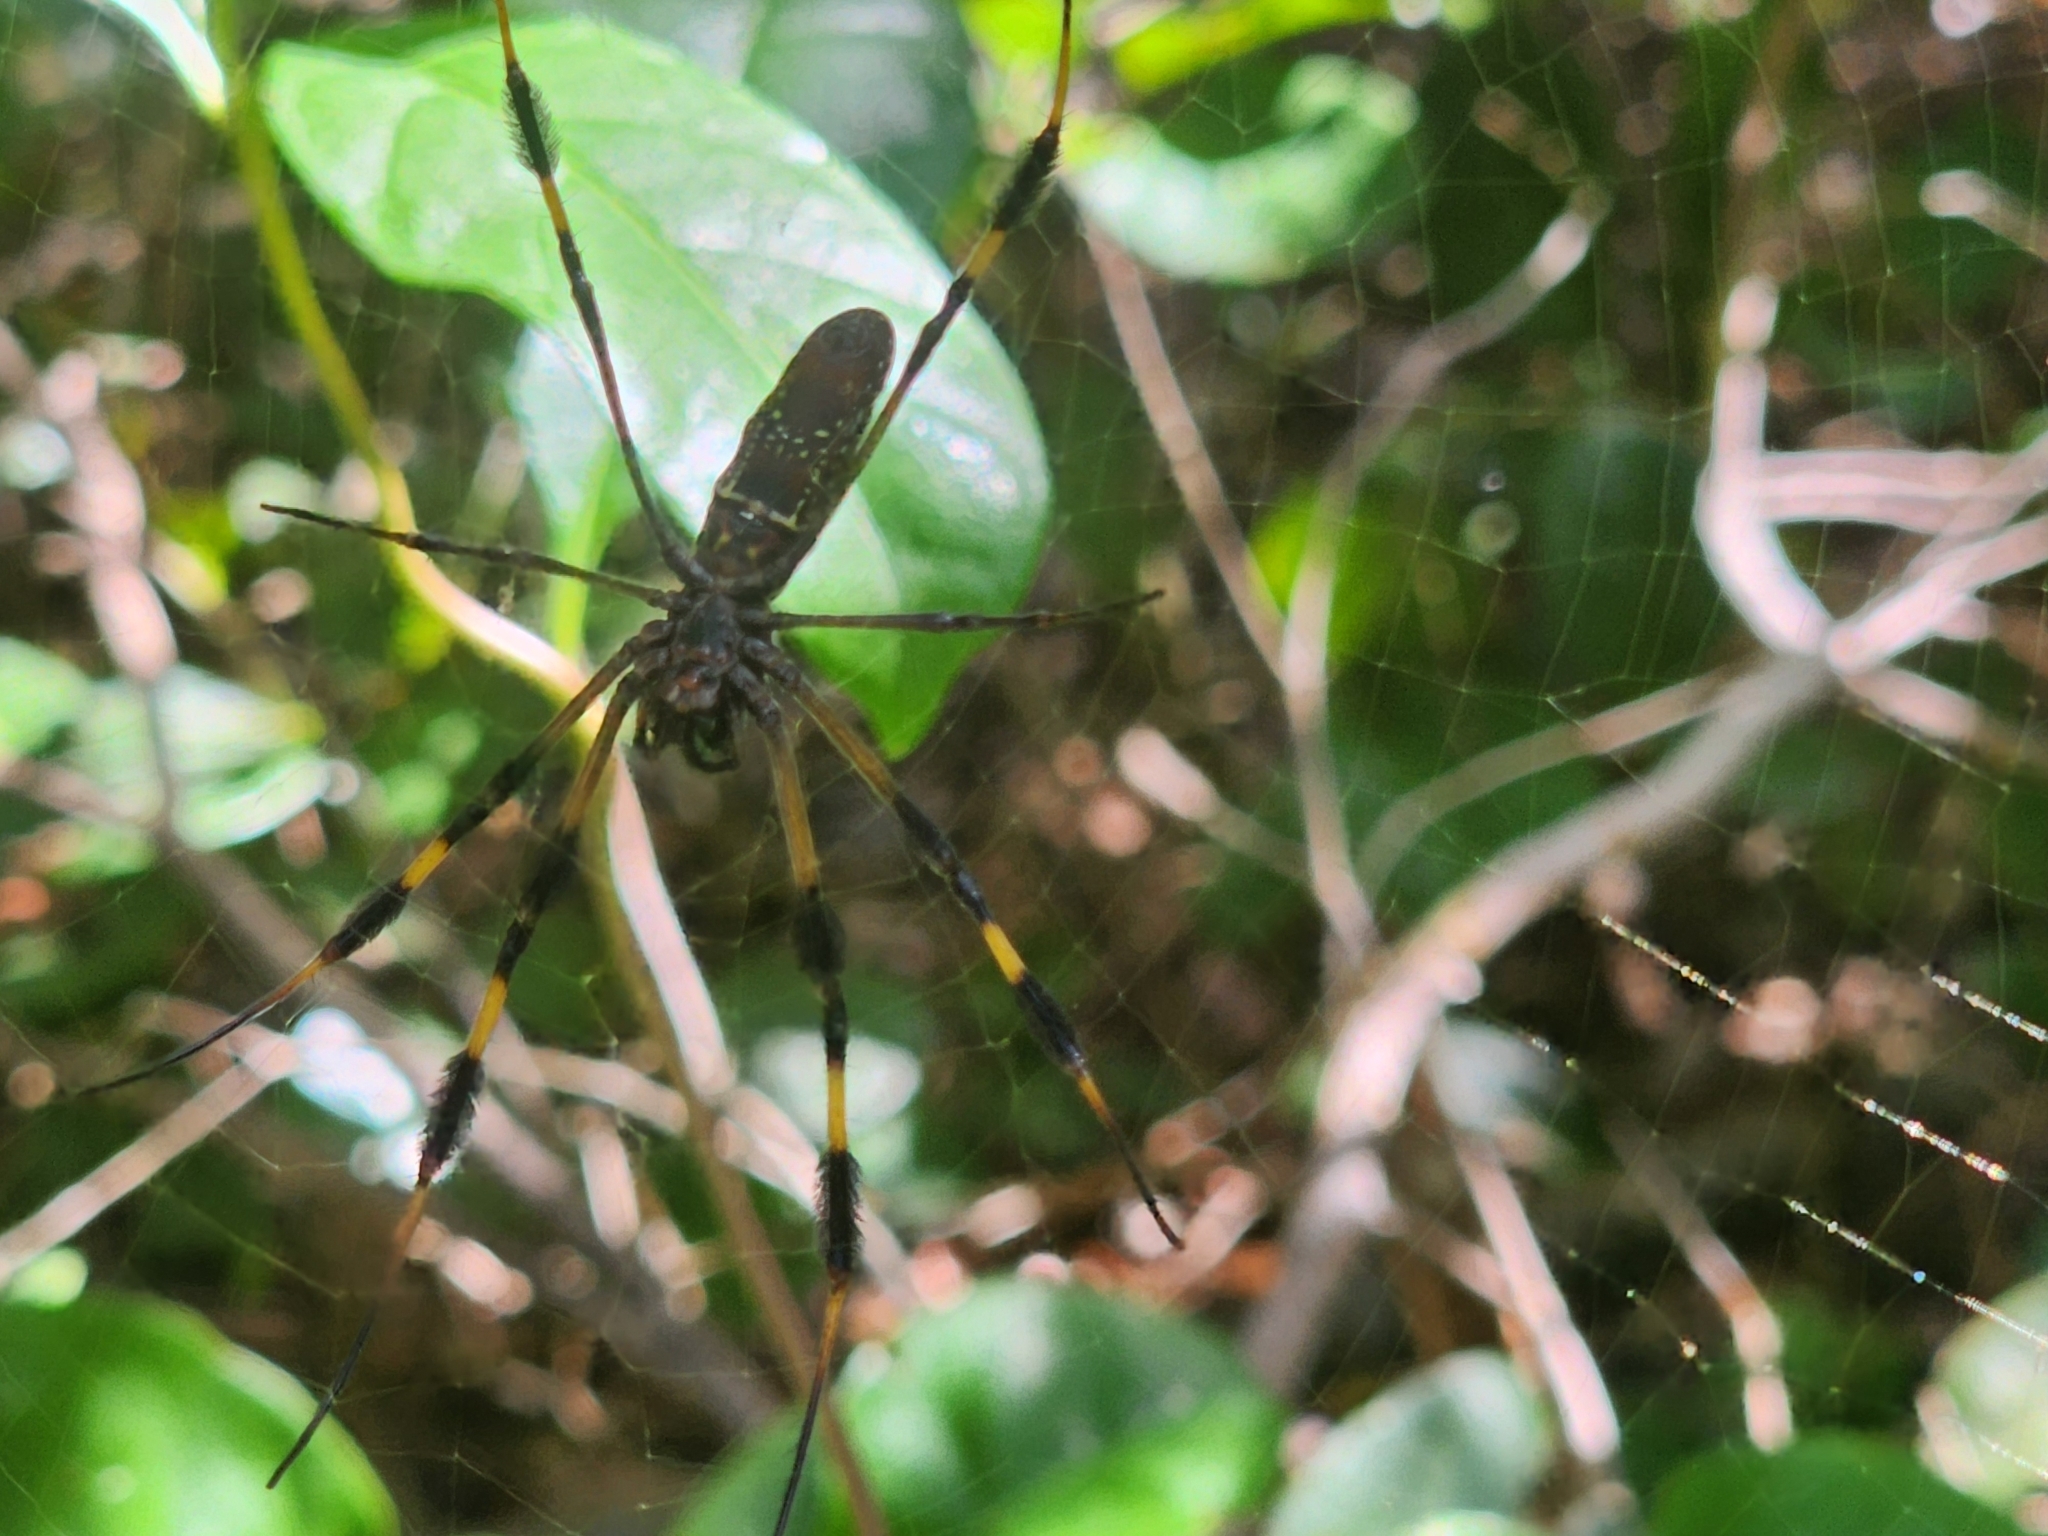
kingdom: Animalia
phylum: Arthropoda
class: Arachnida
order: Araneae
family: Araneidae
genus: Trichonephila
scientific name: Trichonephila clavipes
